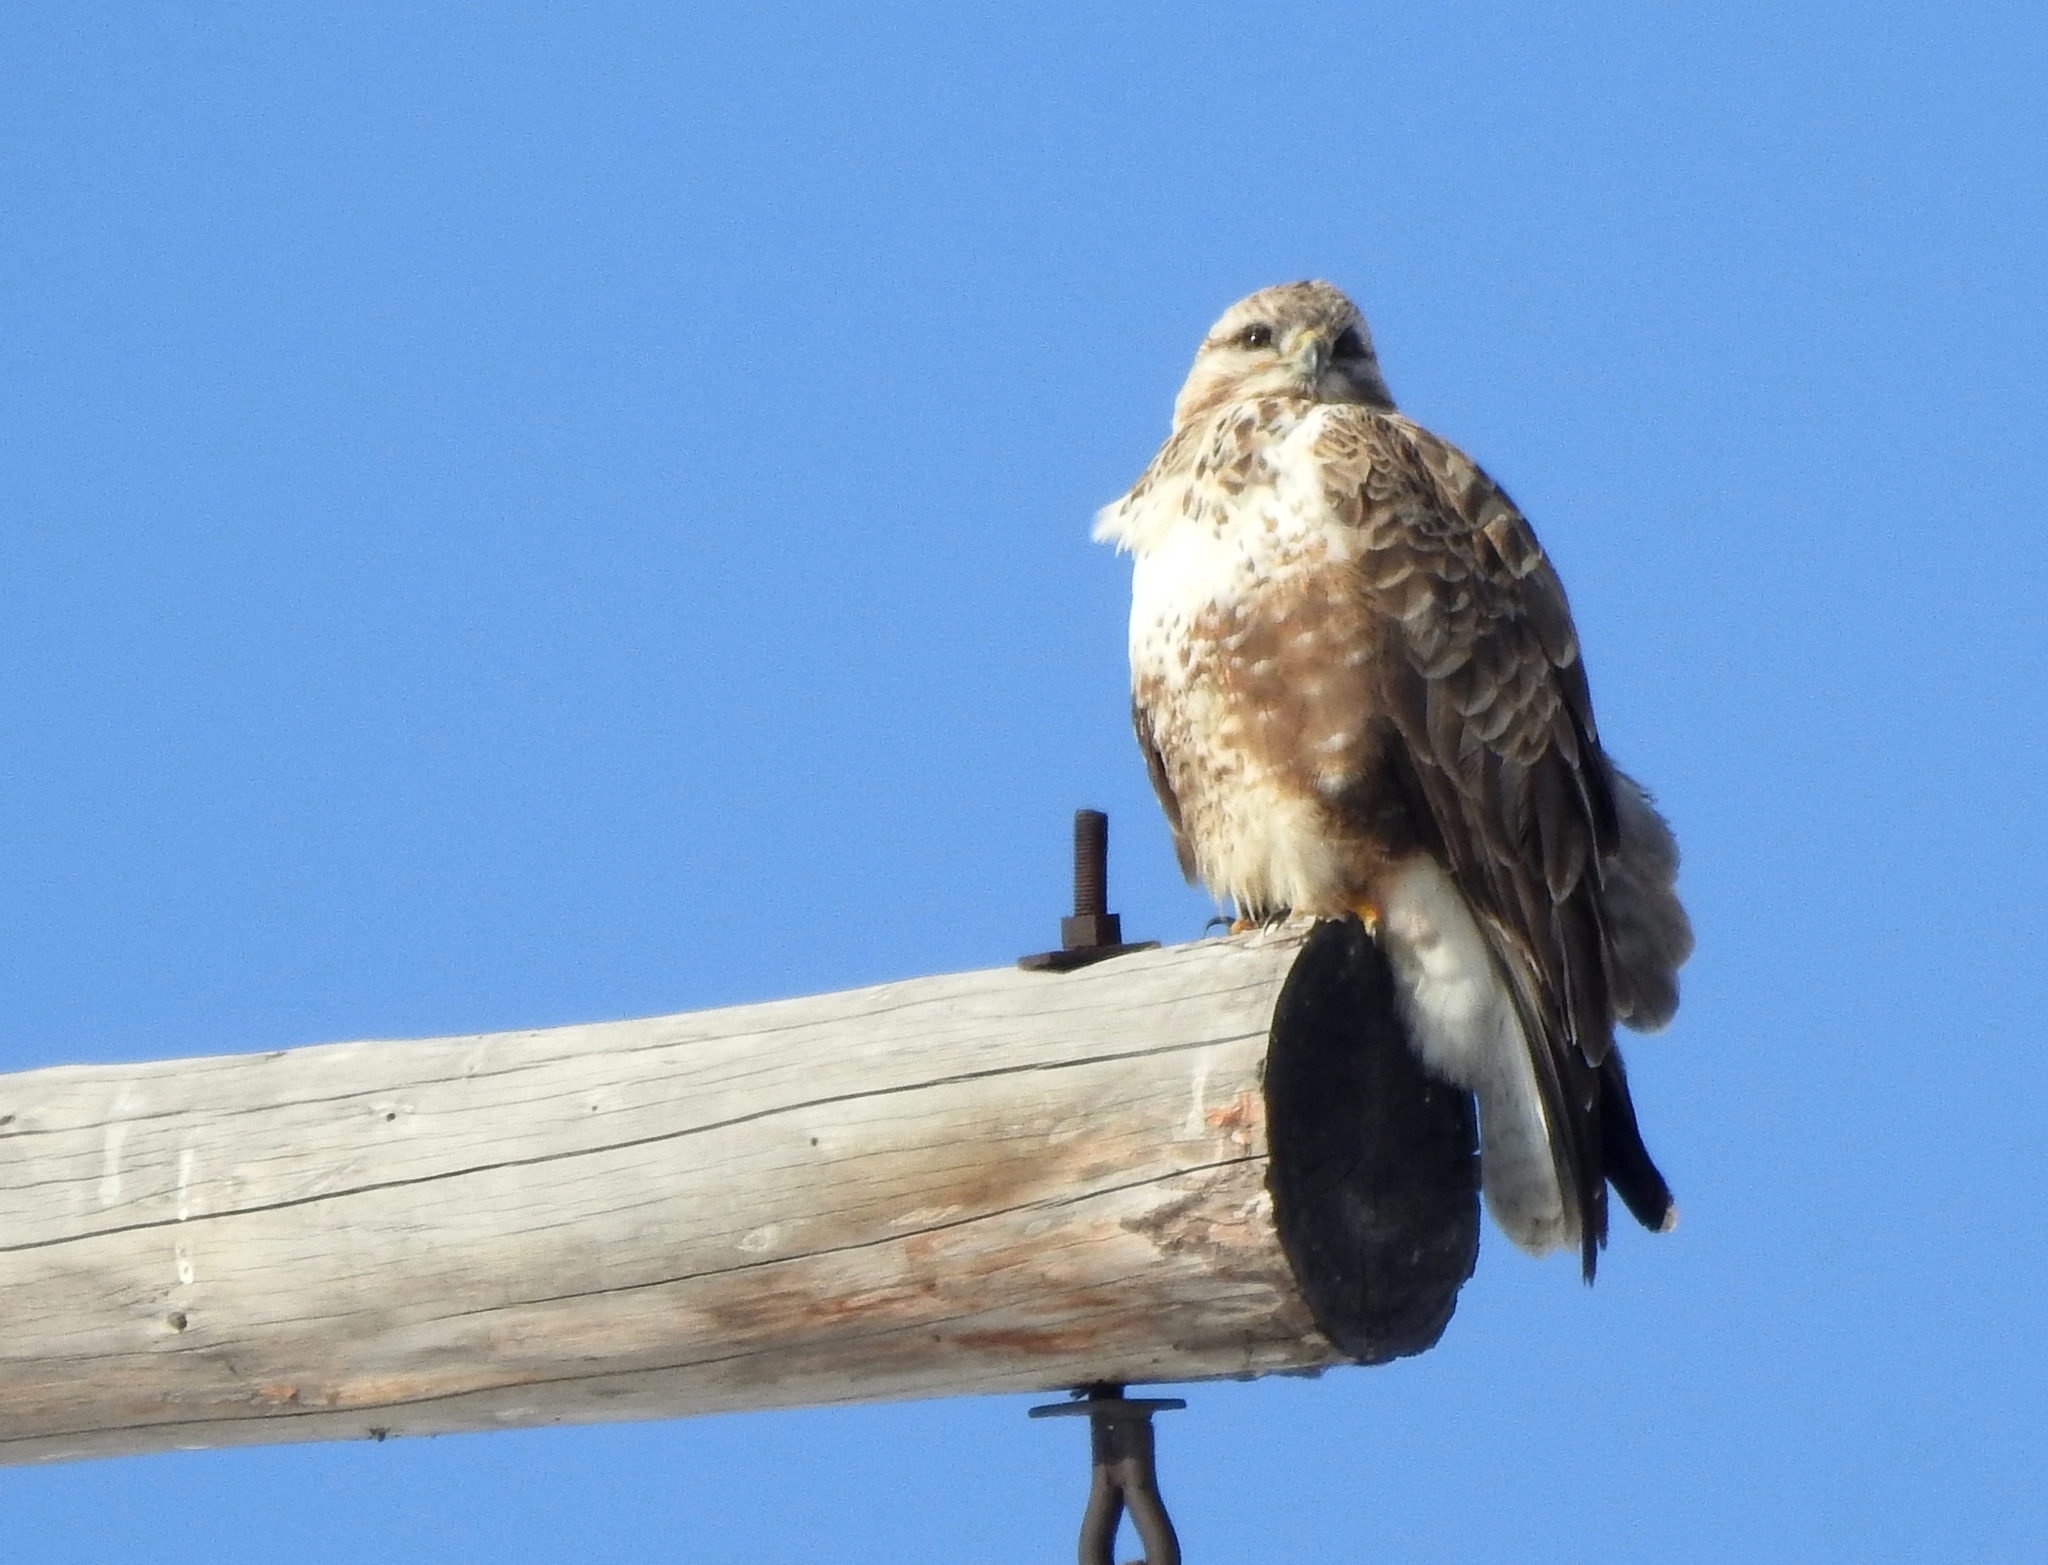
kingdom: Animalia
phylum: Chordata
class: Aves
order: Accipitriformes
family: Accipitridae
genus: Buteo
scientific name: Buteo hemilasius
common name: Upland buzzard
